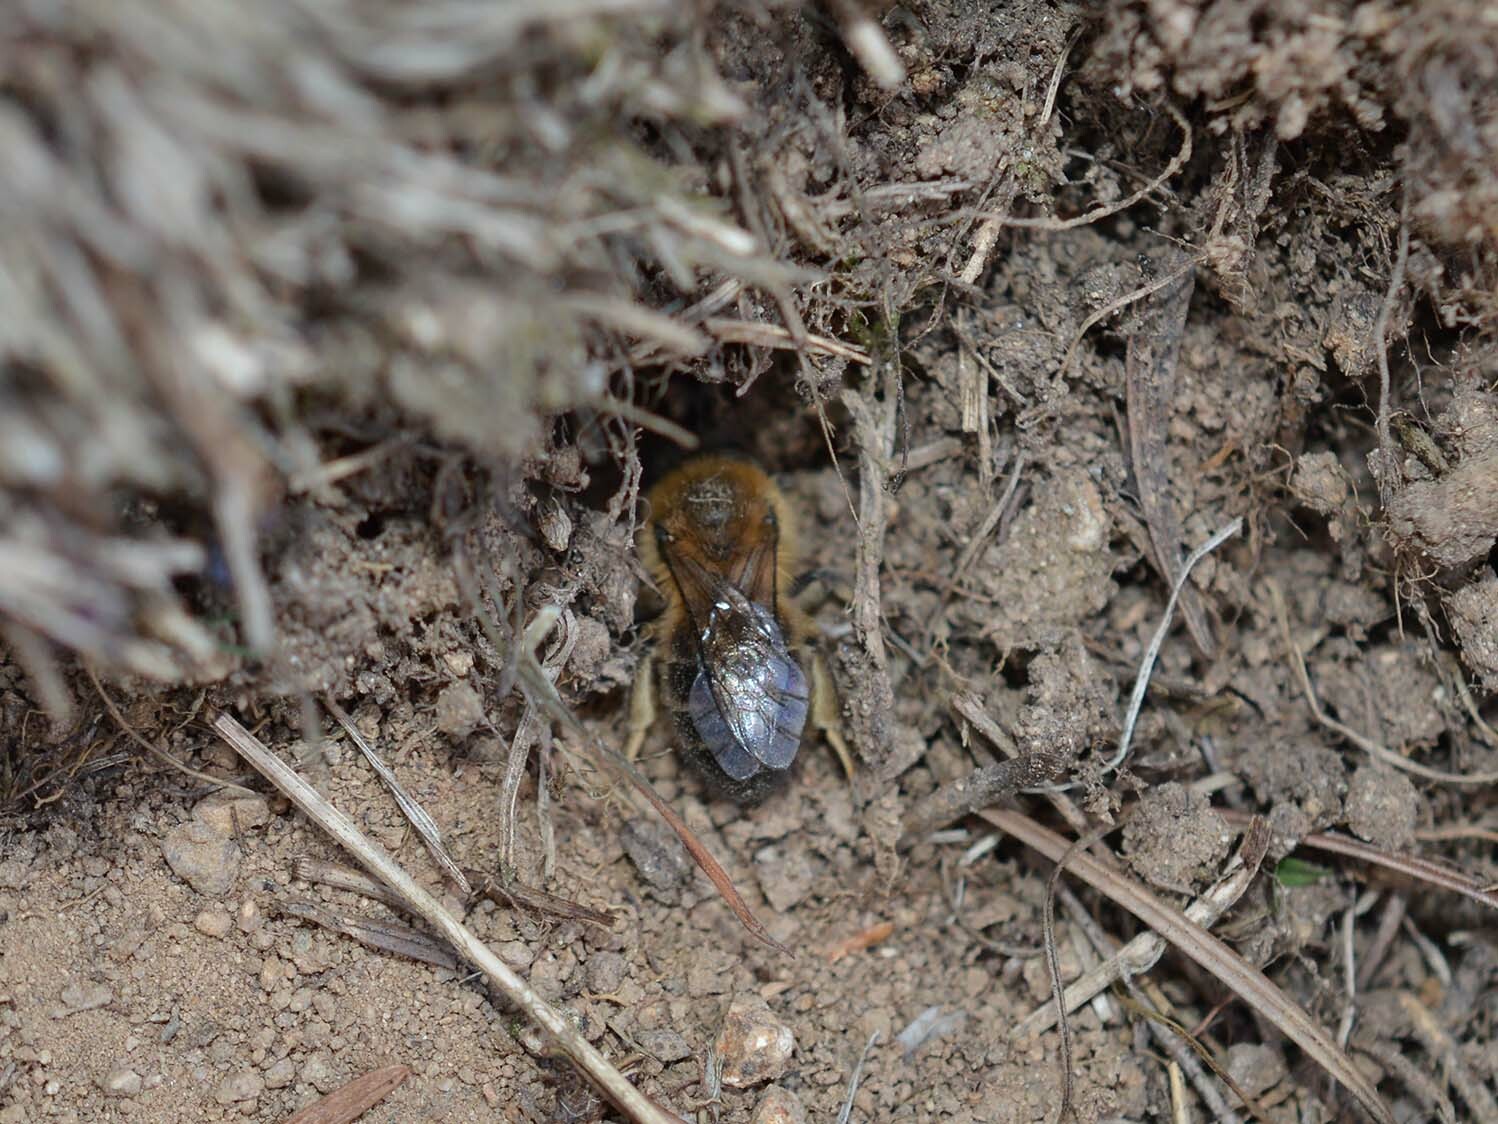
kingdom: Animalia
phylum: Arthropoda
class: Insecta
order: Hymenoptera
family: Colletidae
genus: Colletes
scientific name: Colletes cunicularius
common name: Early colletes
